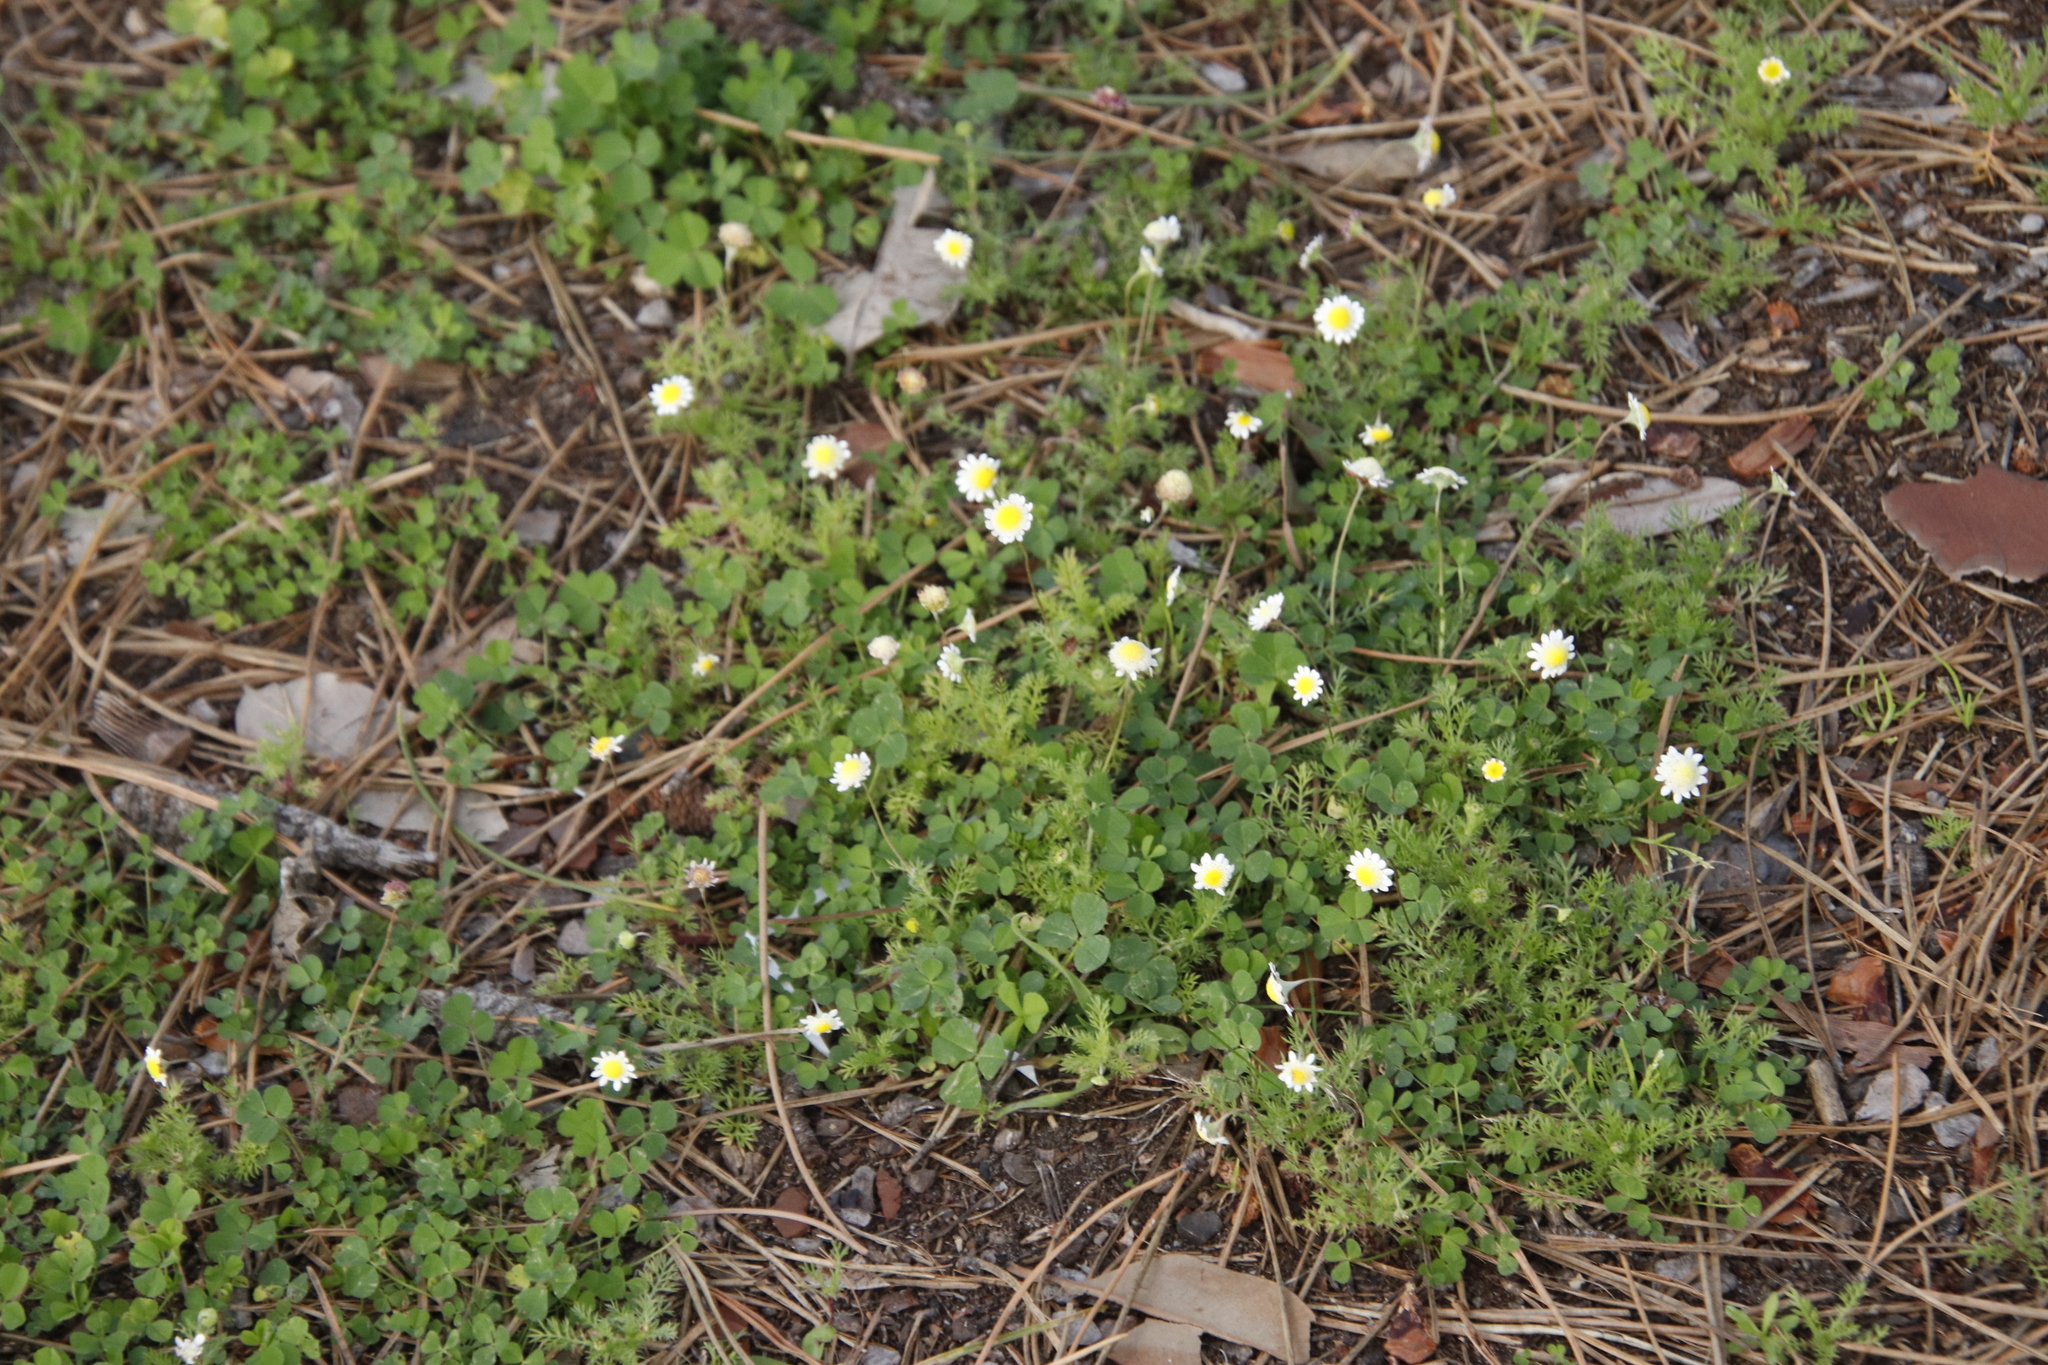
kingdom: Plantae
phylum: Tracheophyta
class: Magnoliopsida
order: Asterales
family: Asteraceae
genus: Cotula
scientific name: Cotula turbinata
